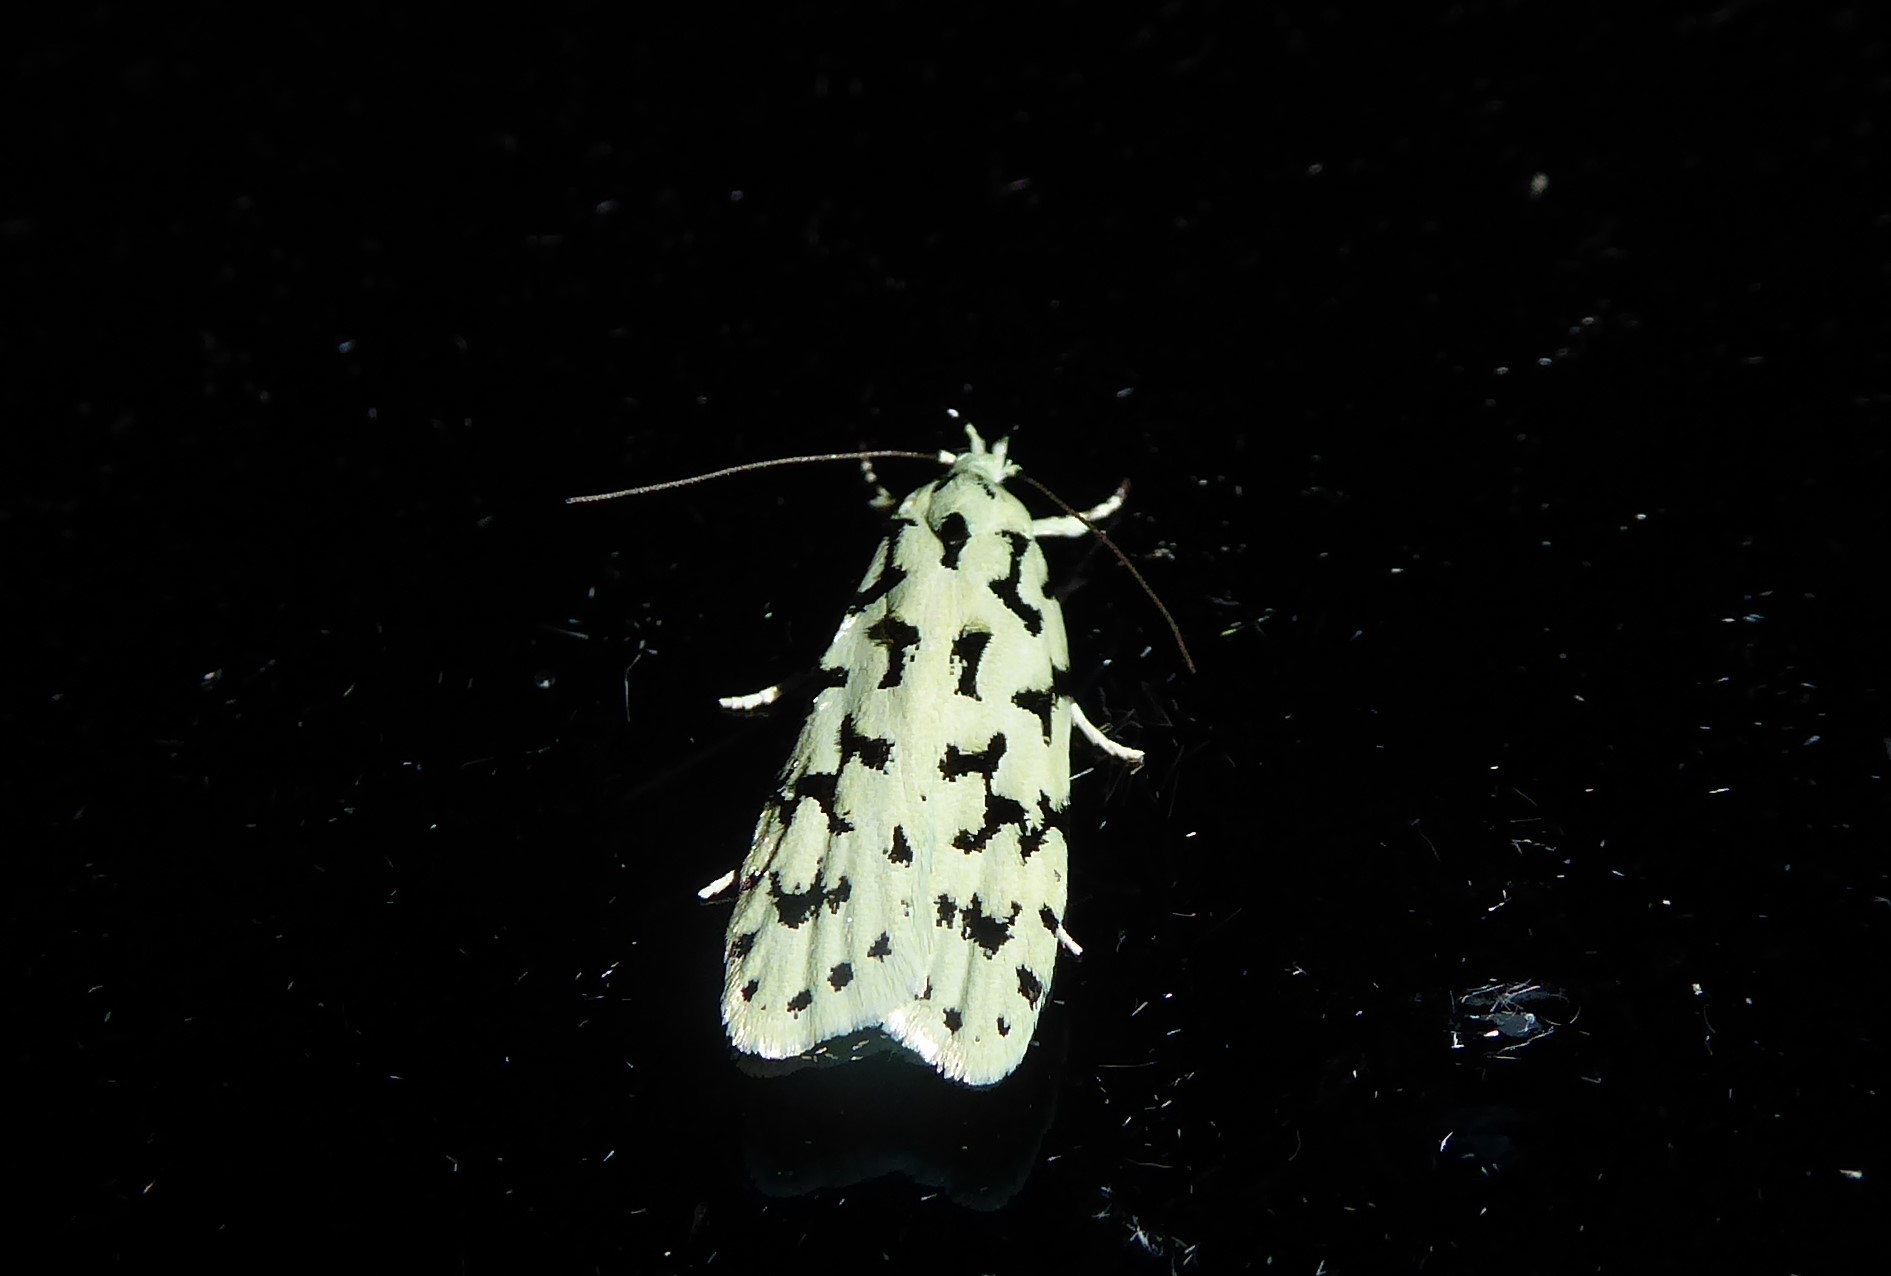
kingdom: Animalia
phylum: Arthropoda
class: Insecta
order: Lepidoptera
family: Oecophoridae
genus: Izatha
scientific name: Izatha huttoni
